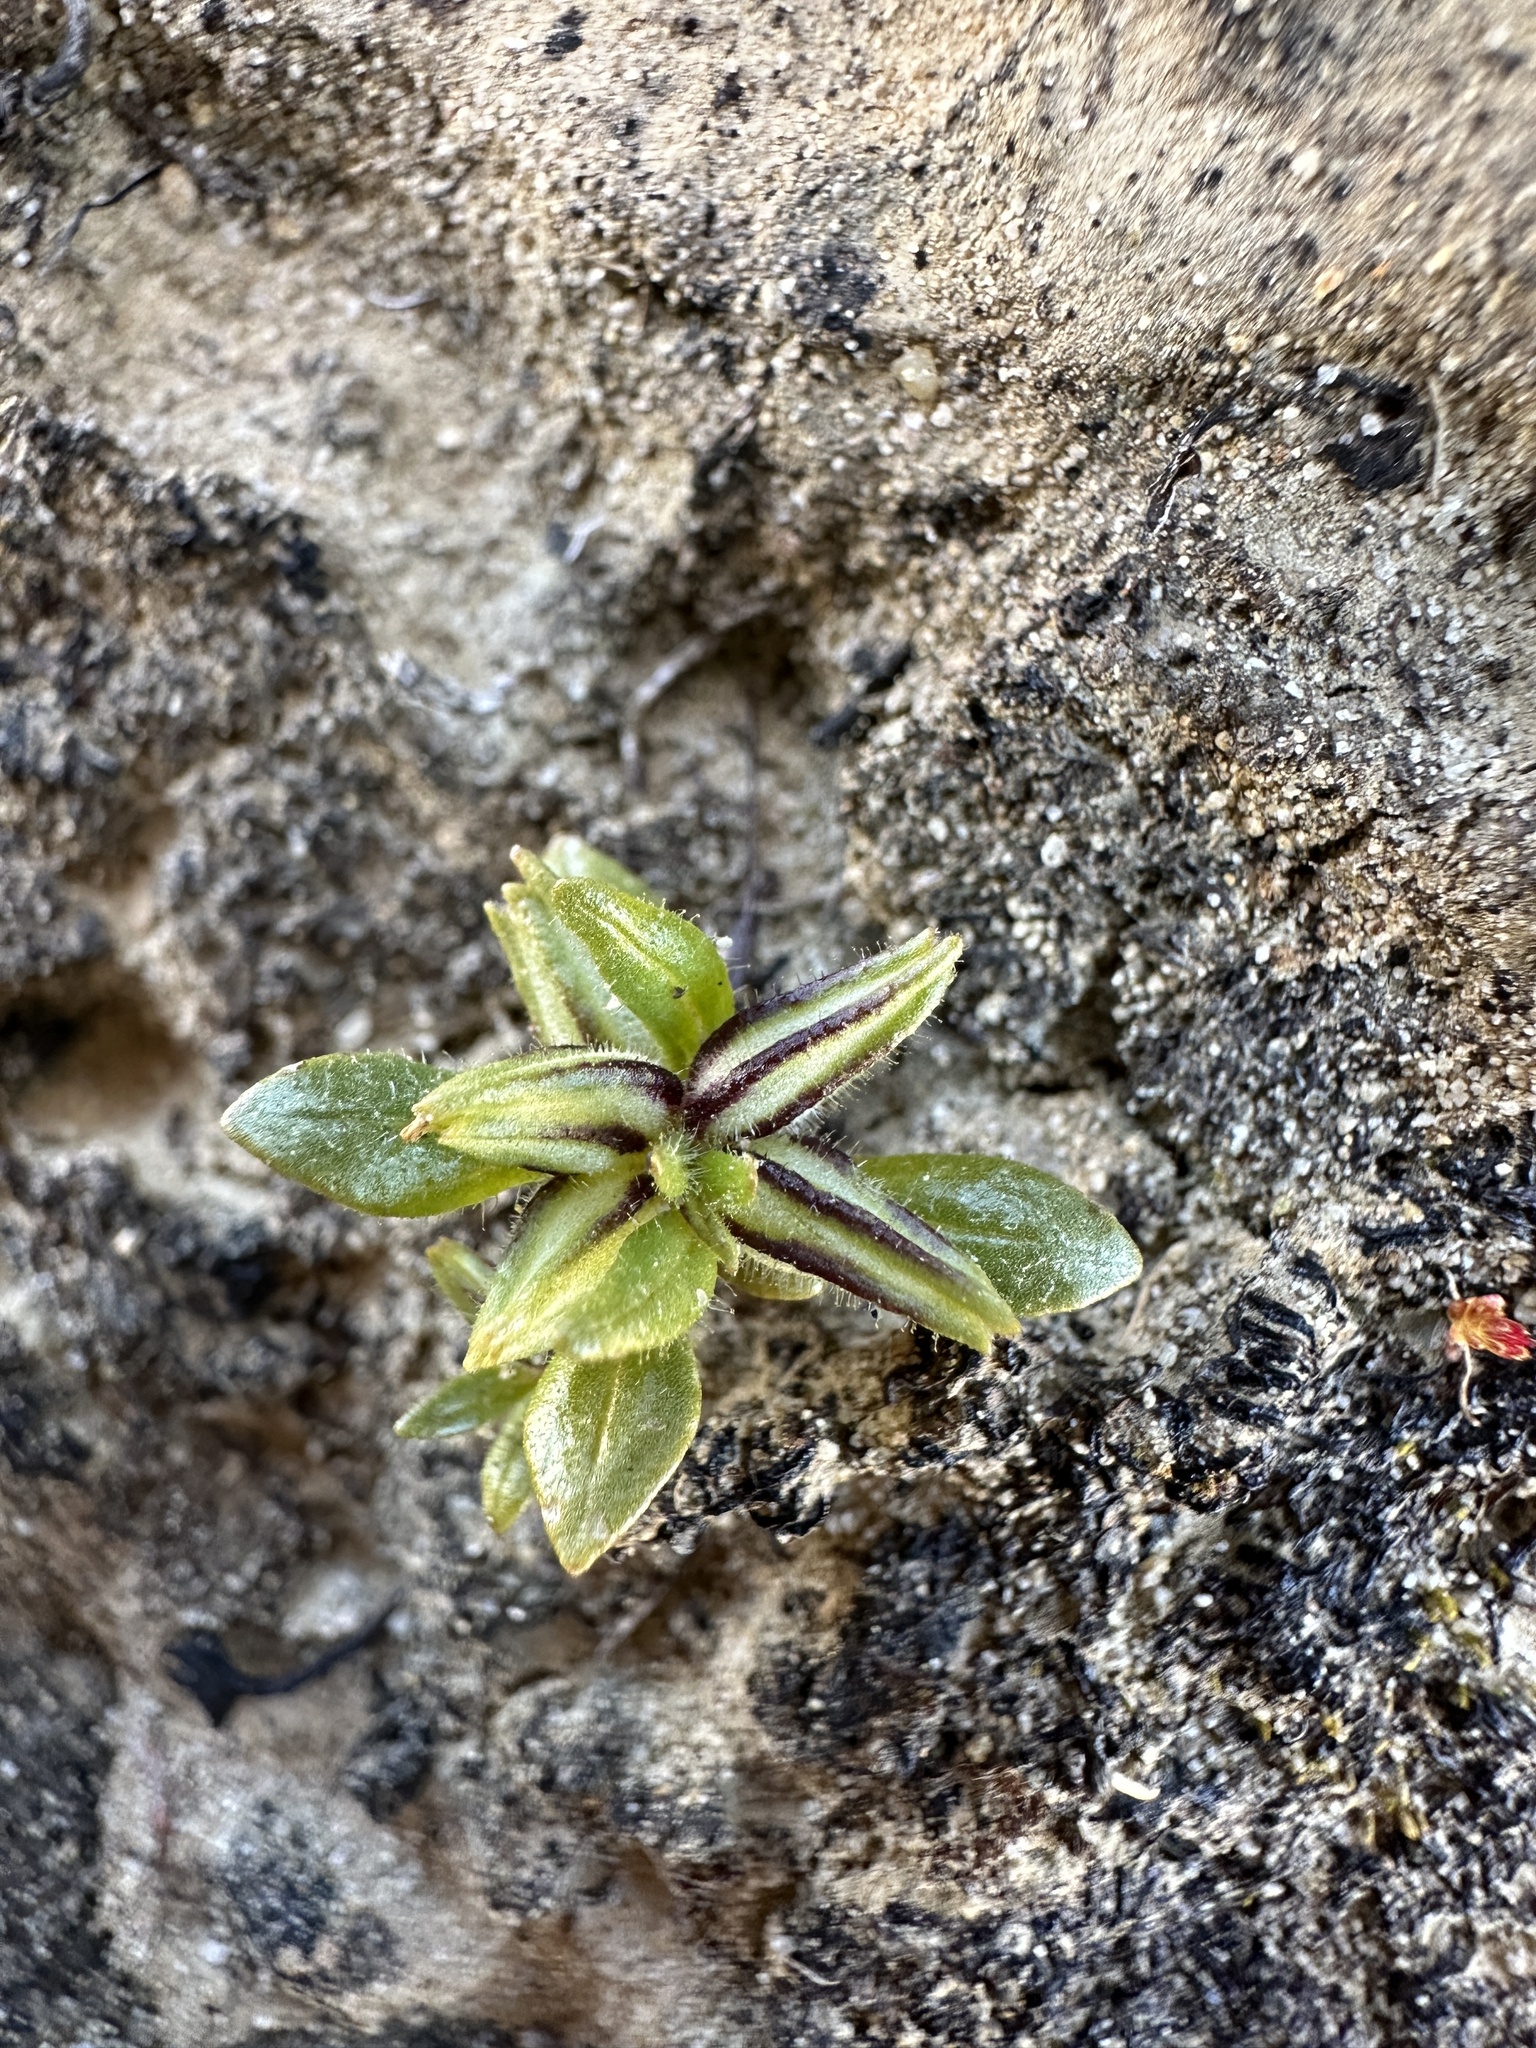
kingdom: Plantae
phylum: Tracheophyta
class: Magnoliopsida
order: Lamiales
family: Phrymaceae
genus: Diplacus
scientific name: Diplacus douglasii
